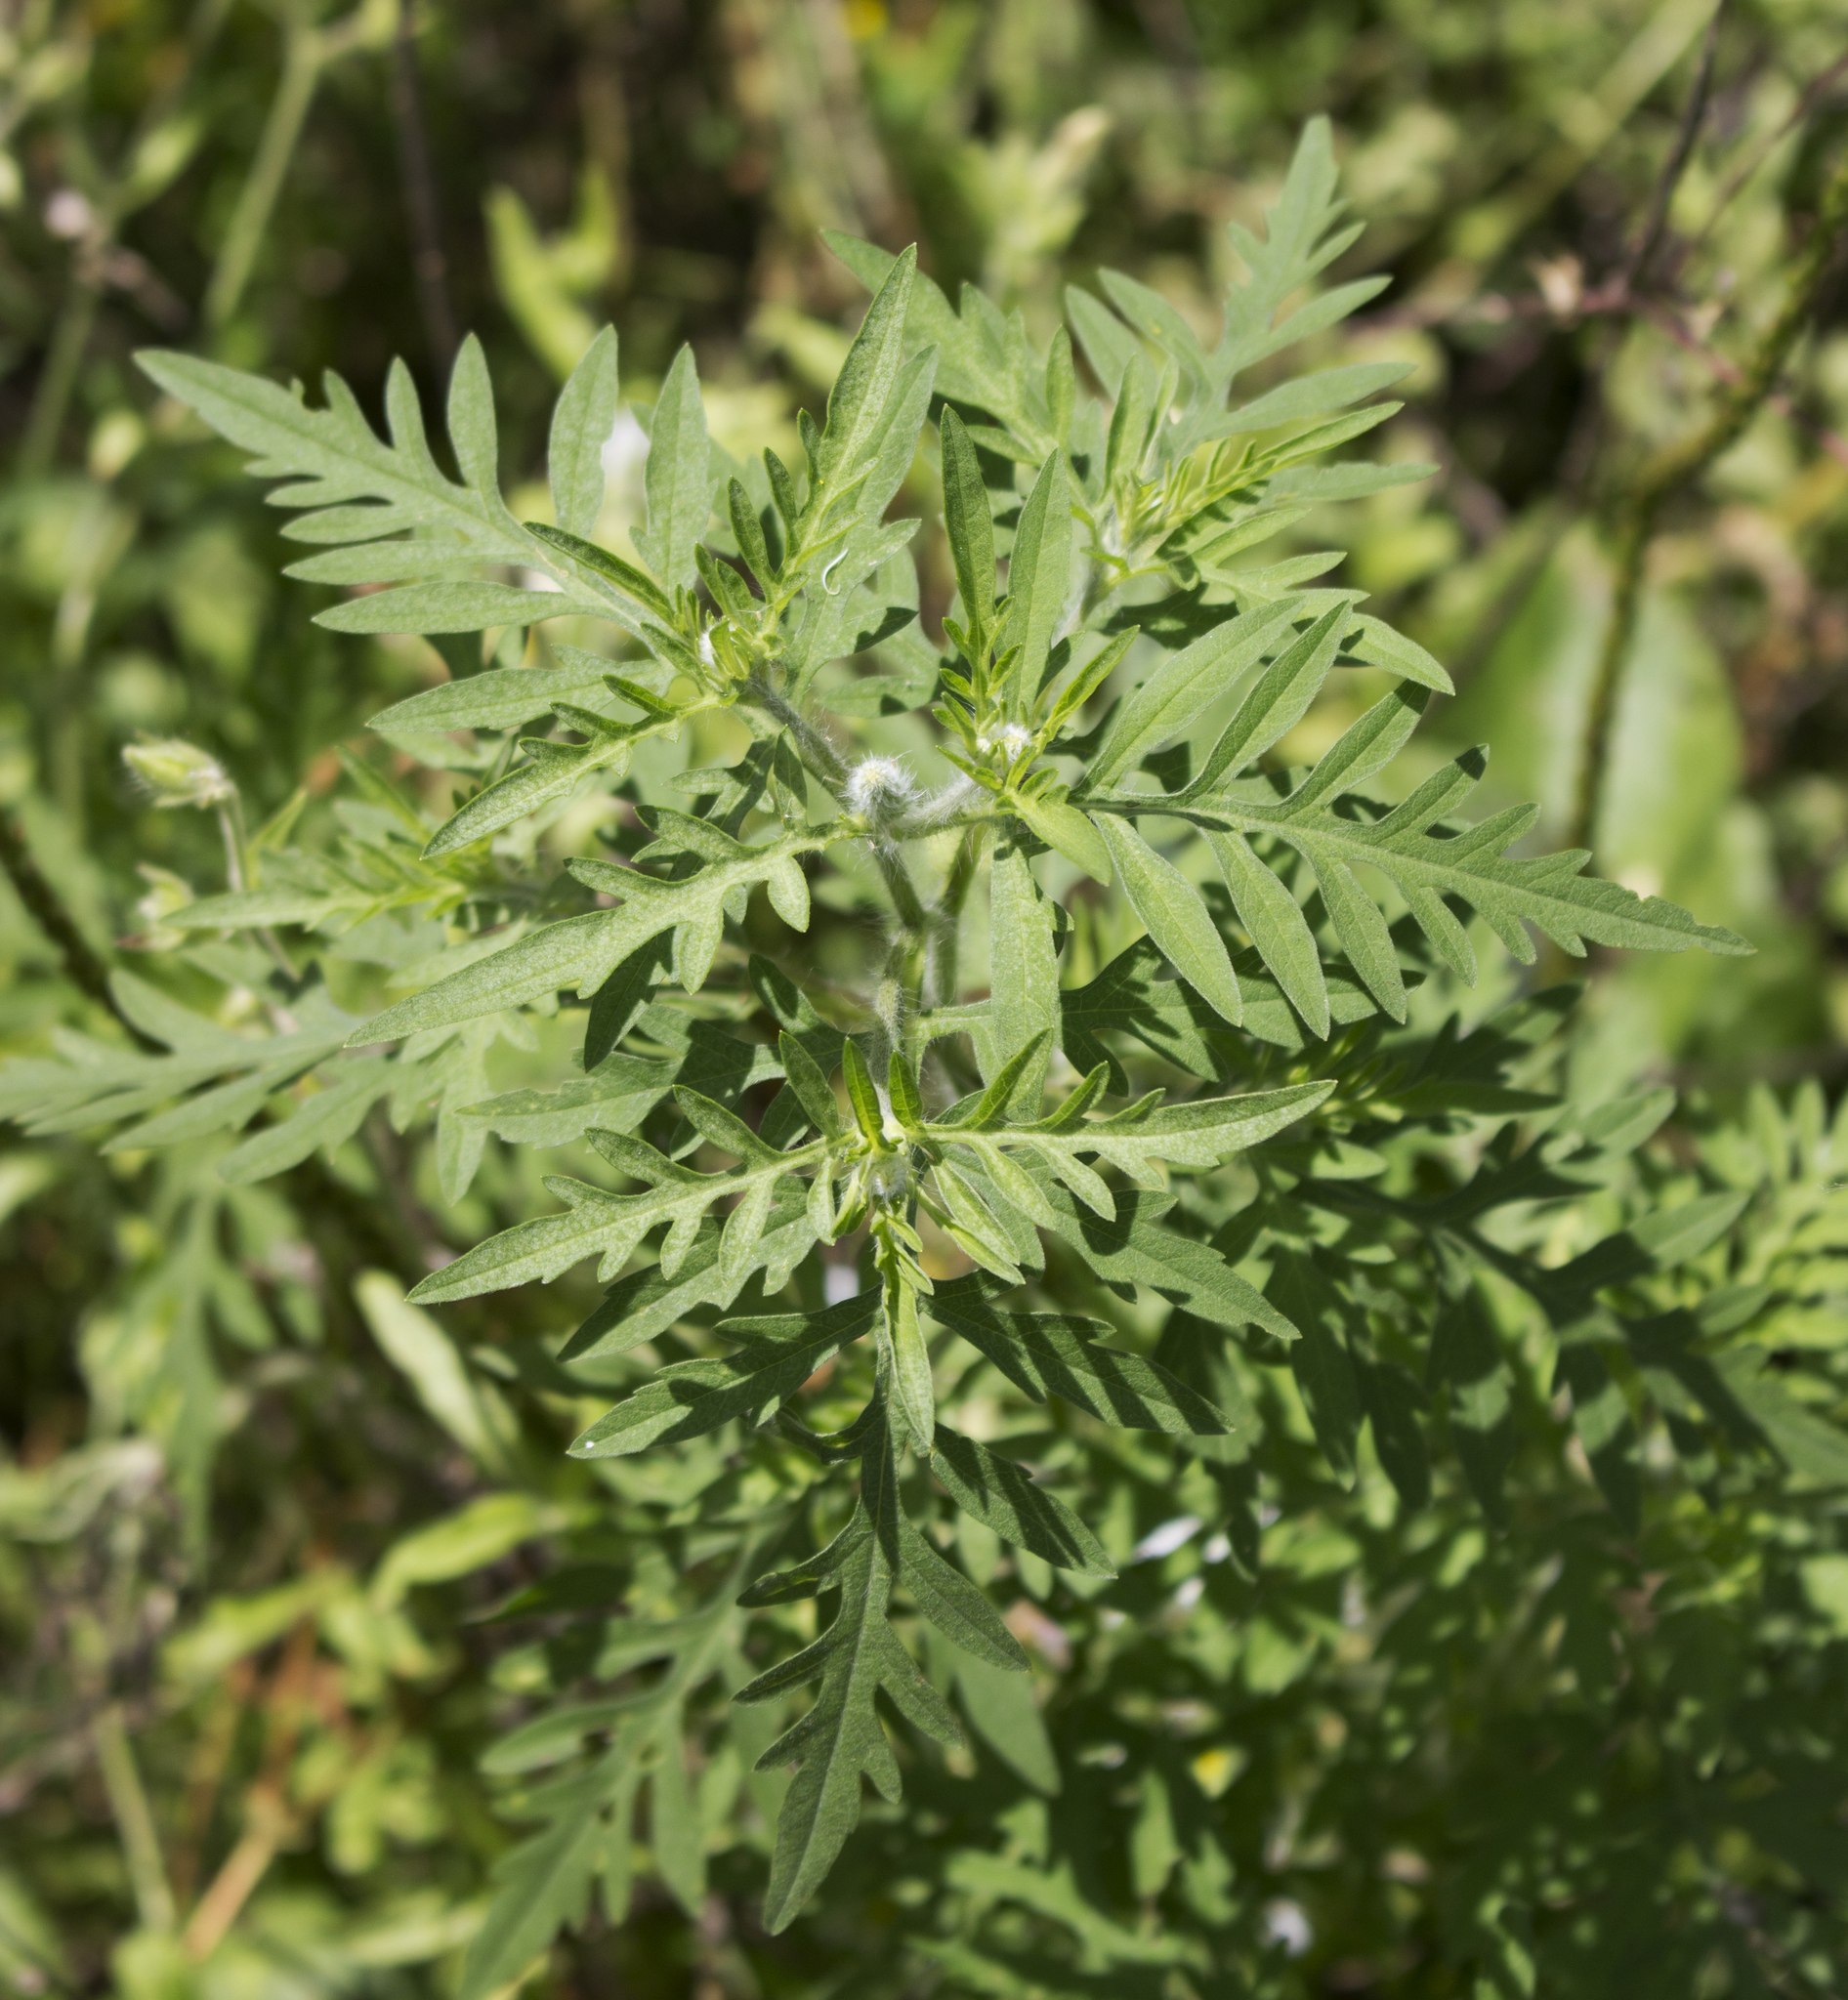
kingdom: Plantae
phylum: Tracheophyta
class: Magnoliopsida
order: Asterales
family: Asteraceae
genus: Ambrosia
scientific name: Ambrosia artemisiifolia
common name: Annual ragweed
